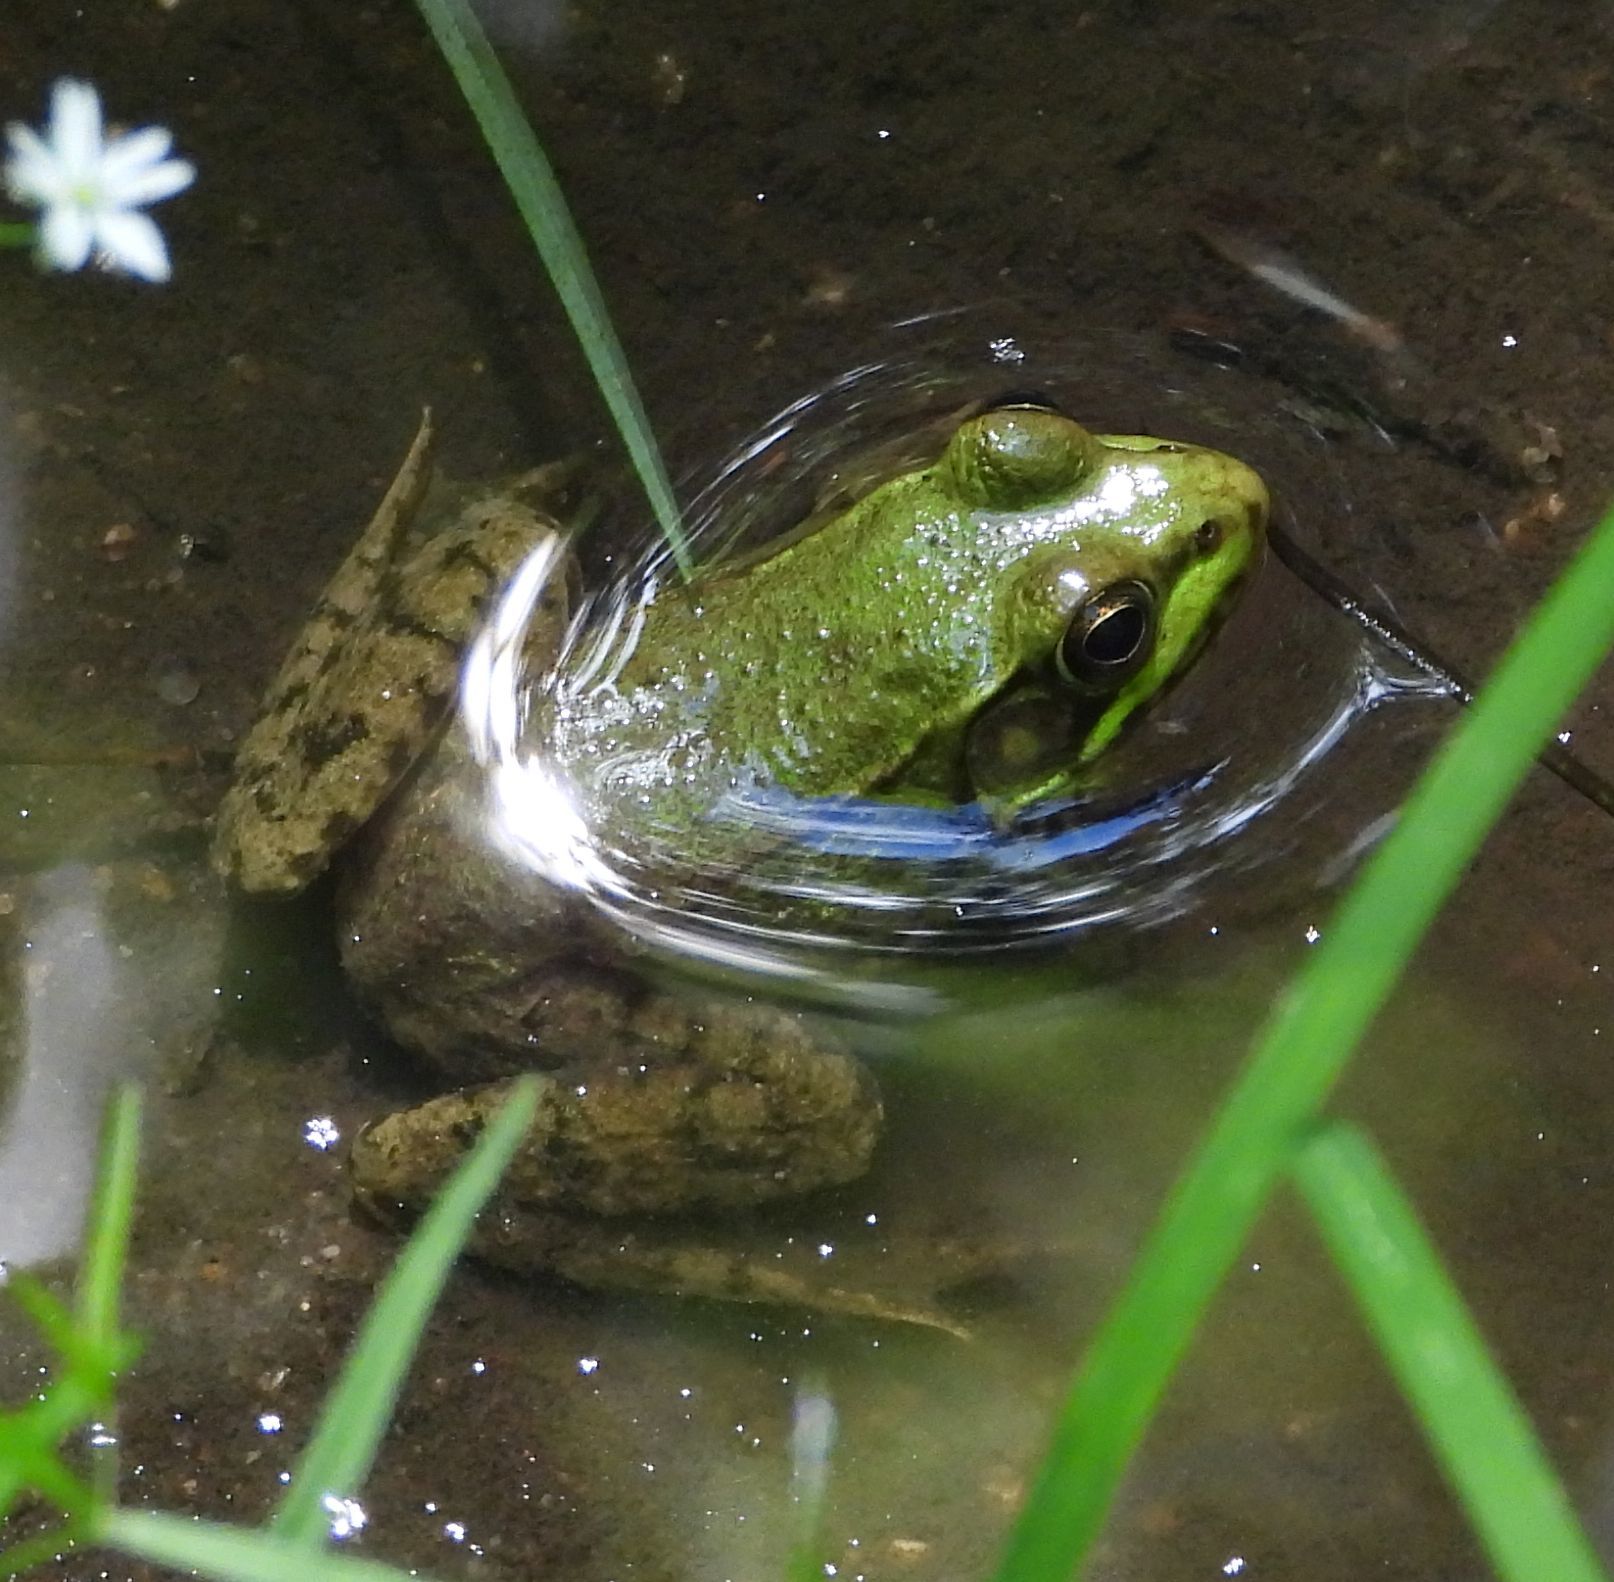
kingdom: Animalia
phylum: Chordata
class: Amphibia
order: Anura
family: Ranidae
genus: Lithobates
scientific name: Lithobates clamitans
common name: Green frog
